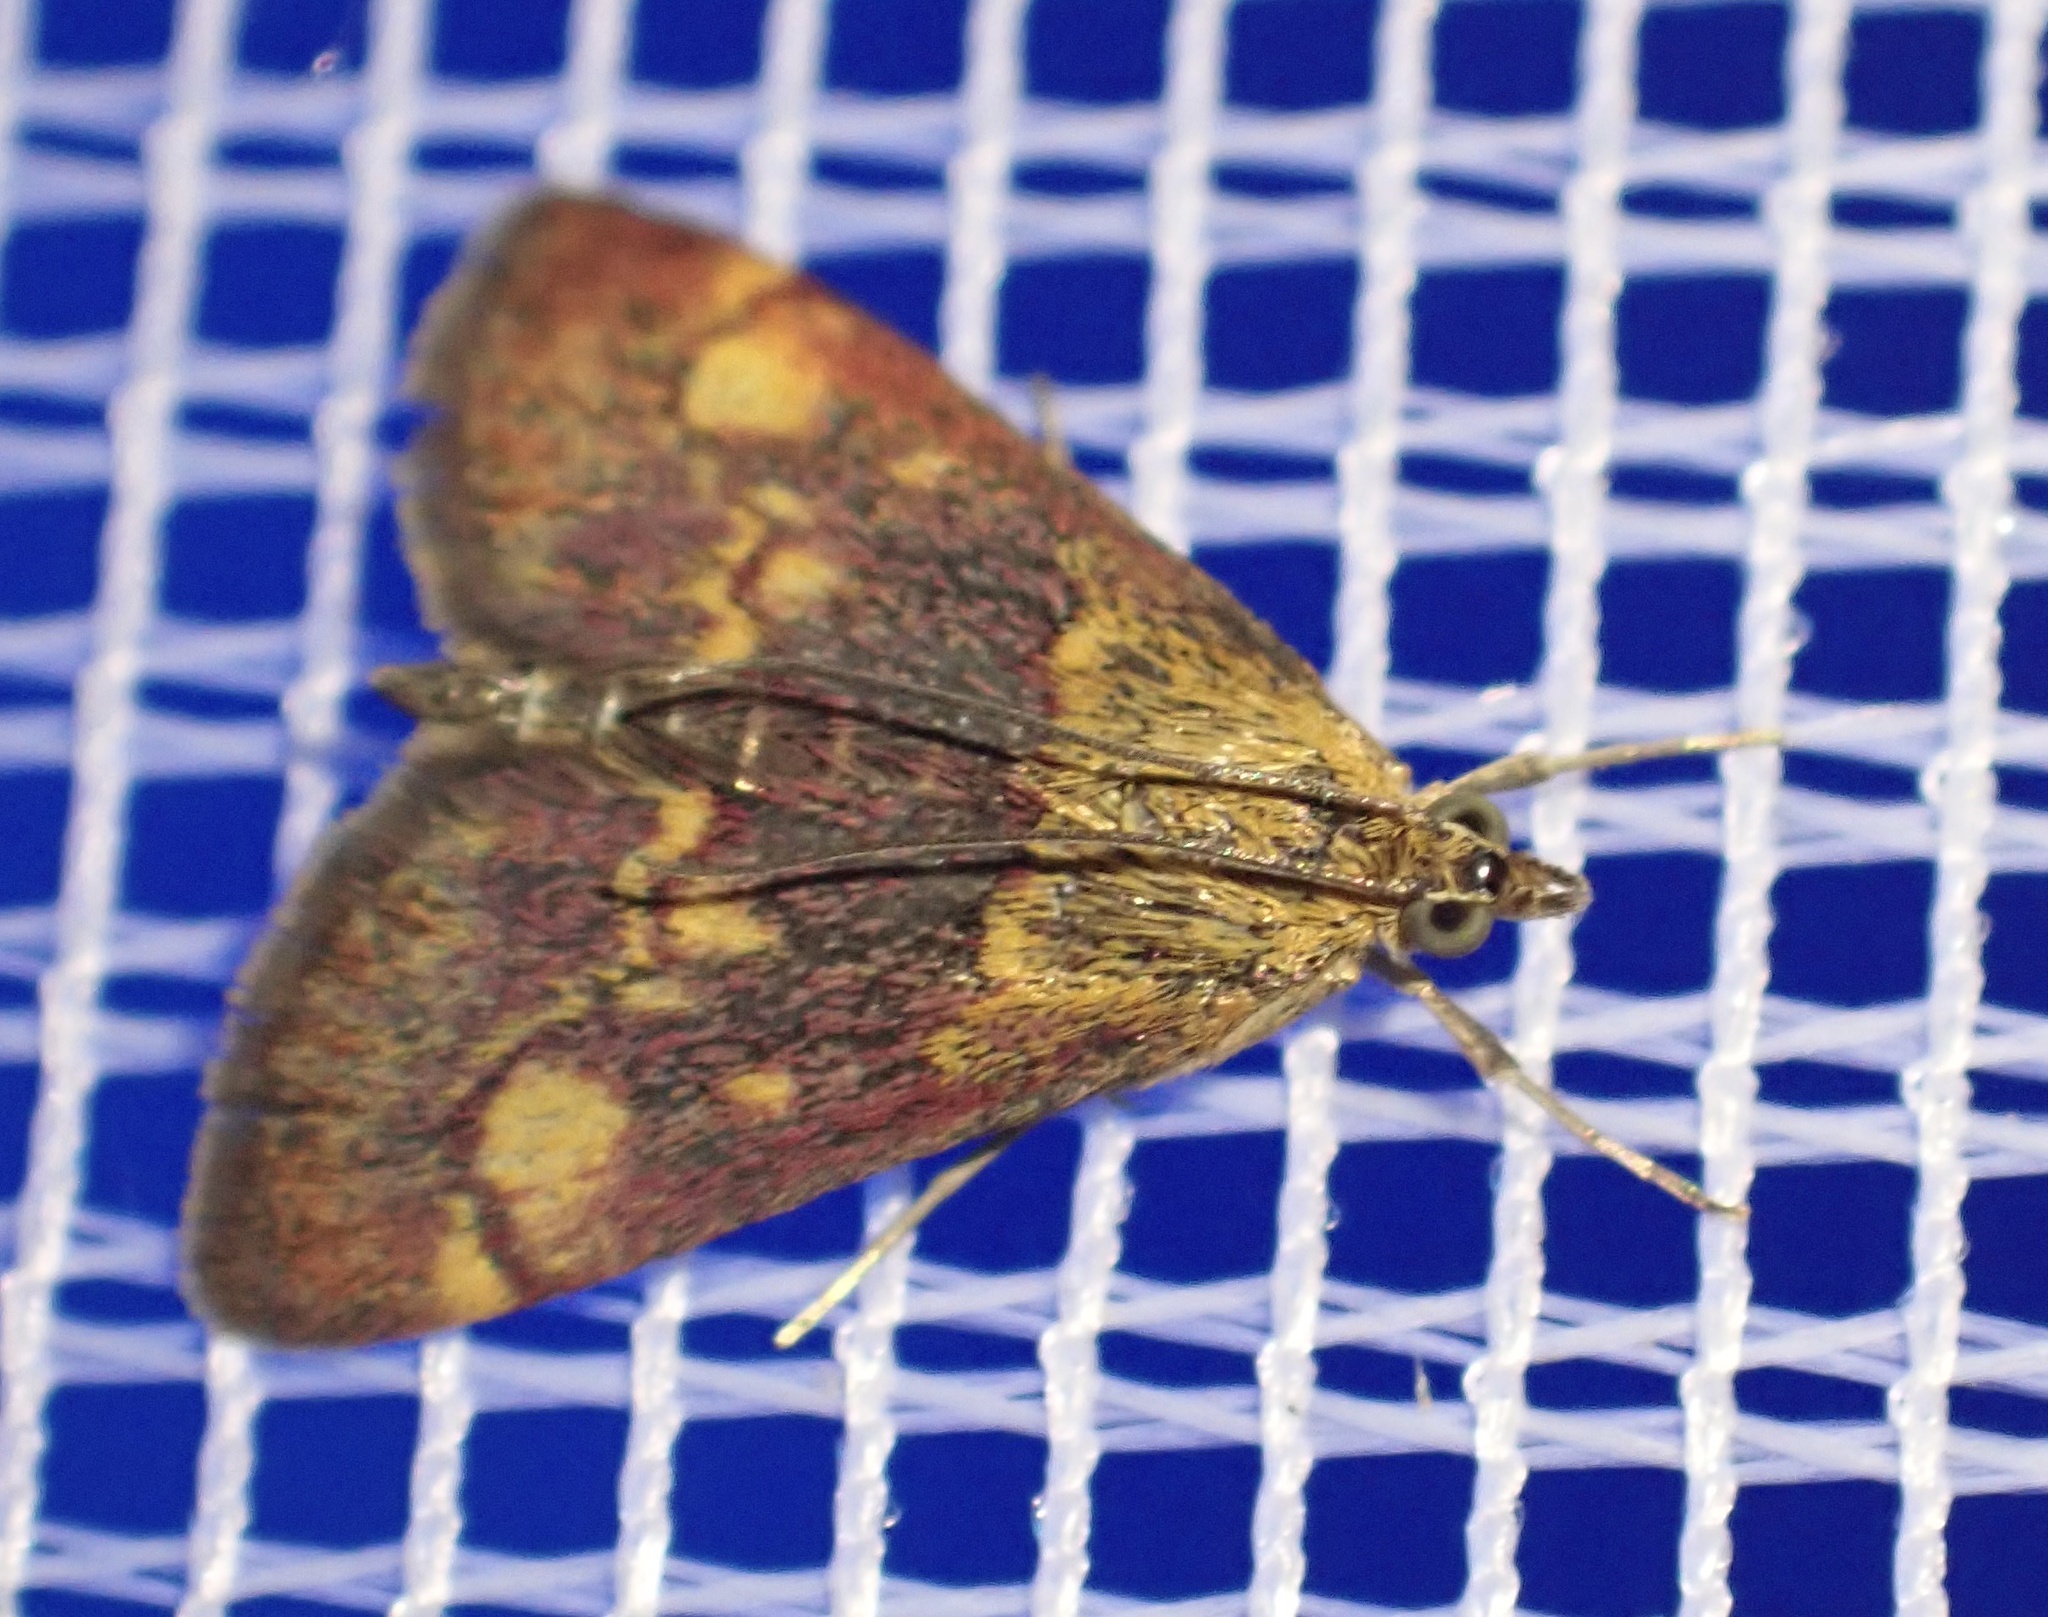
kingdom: Animalia
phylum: Arthropoda
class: Insecta
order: Lepidoptera
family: Crambidae
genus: Pyrausta
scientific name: Pyrausta aurata
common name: Small purple & gold
